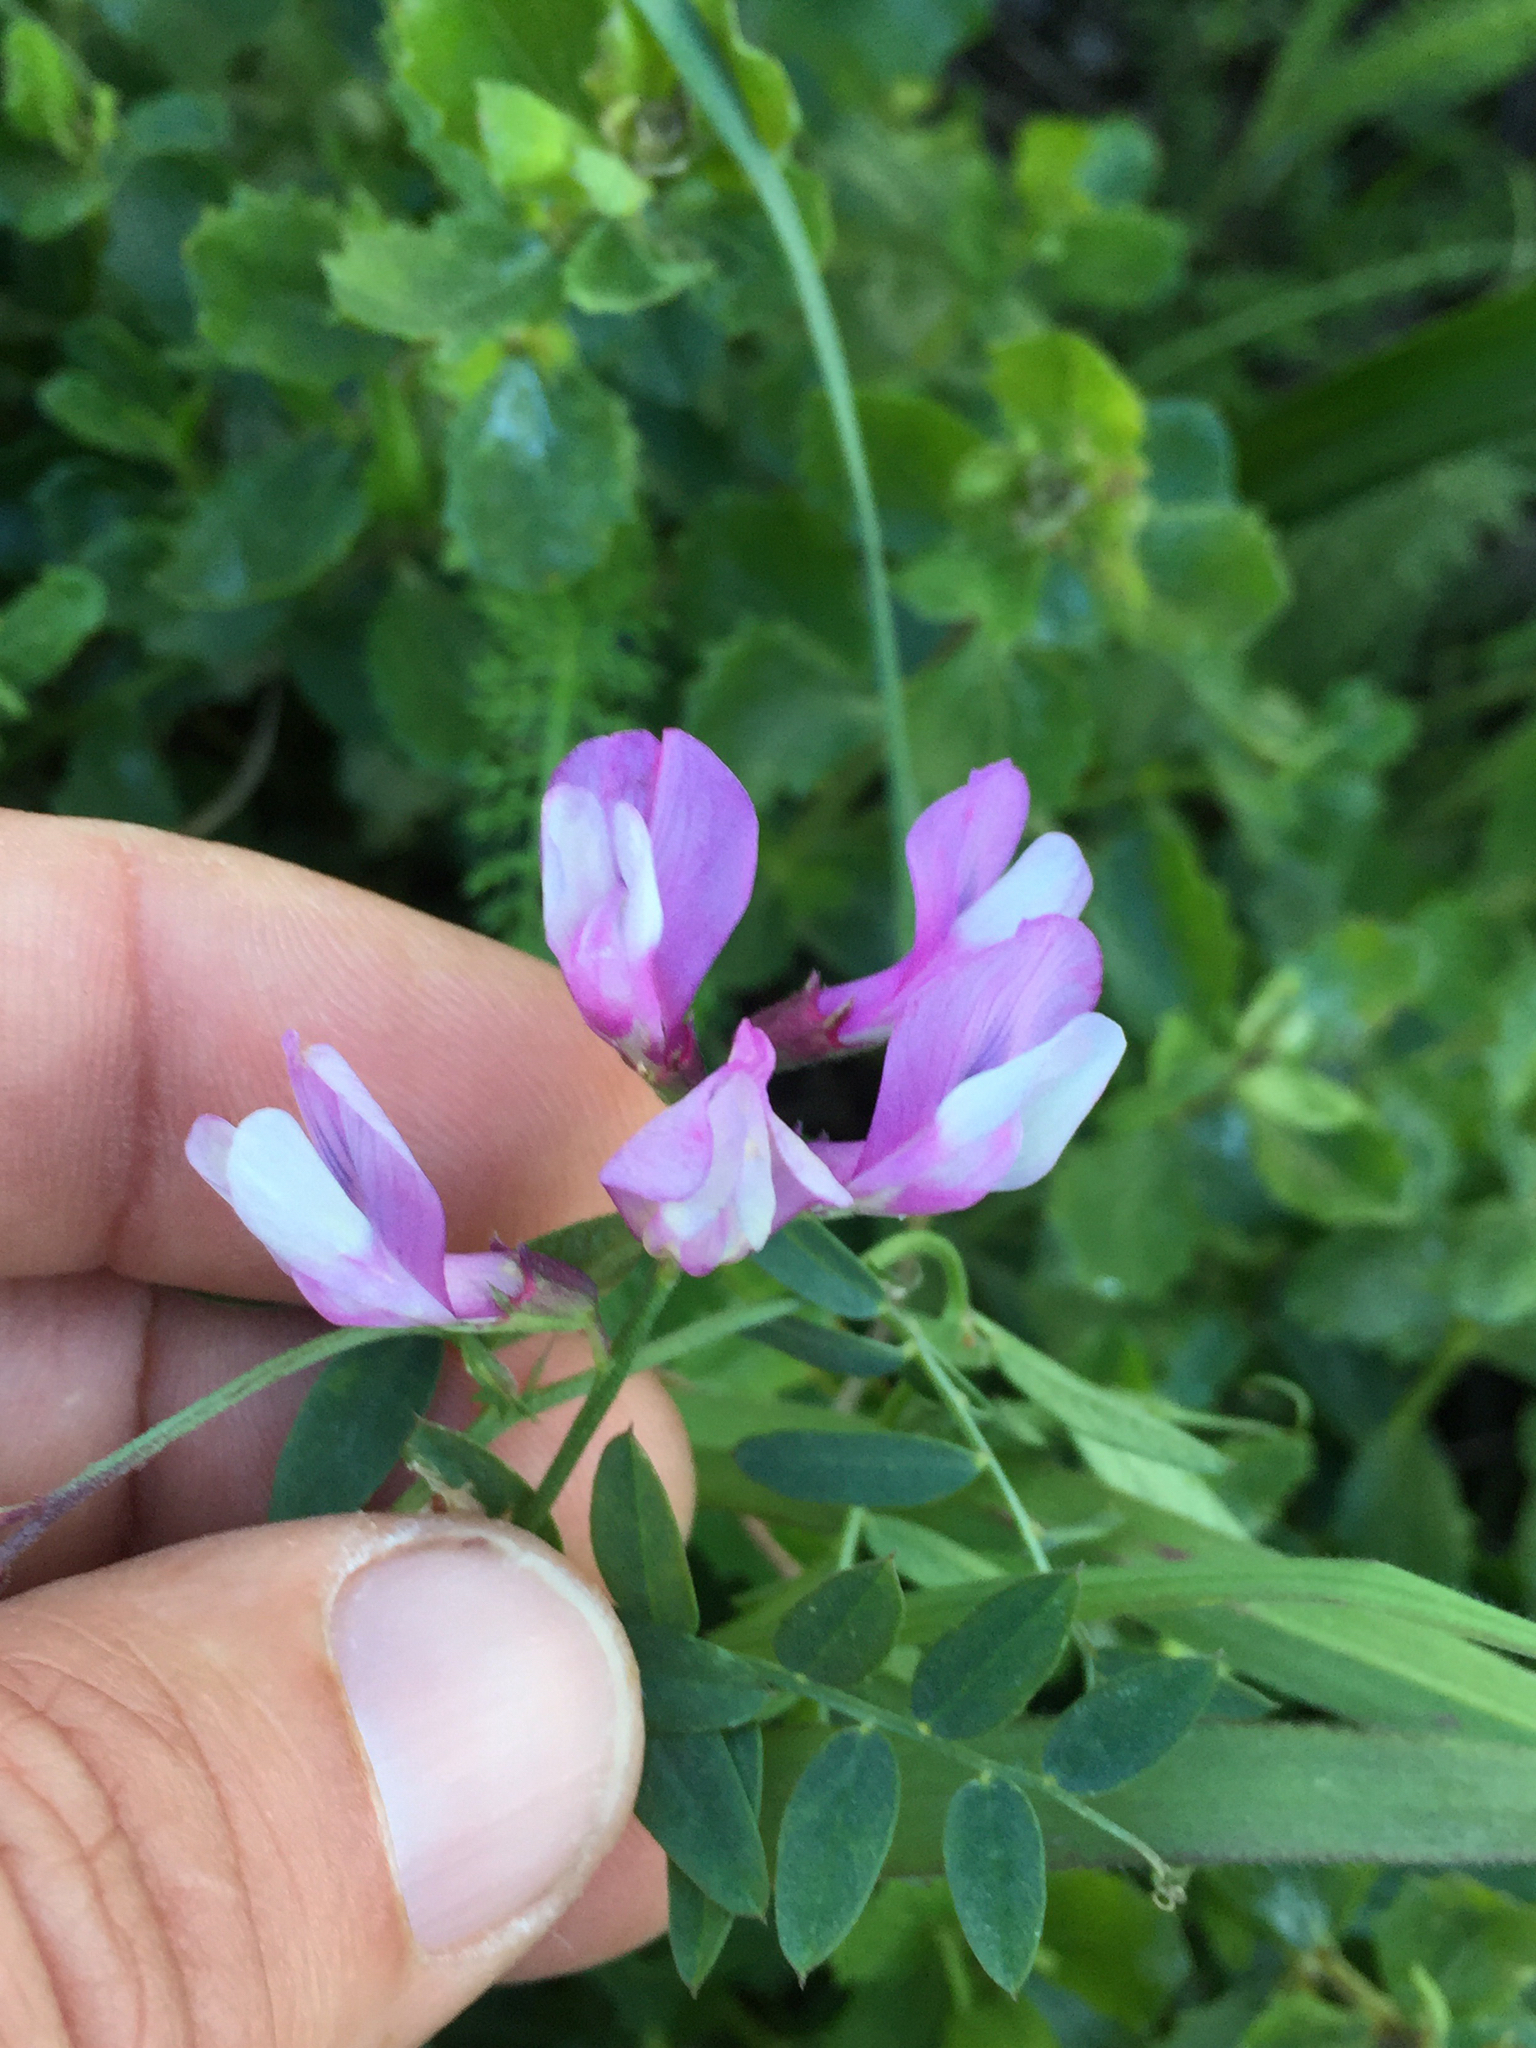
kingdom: Plantae
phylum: Tracheophyta
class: Magnoliopsida
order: Fabales
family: Fabaceae
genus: Vicia
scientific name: Vicia americana
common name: American vetch
